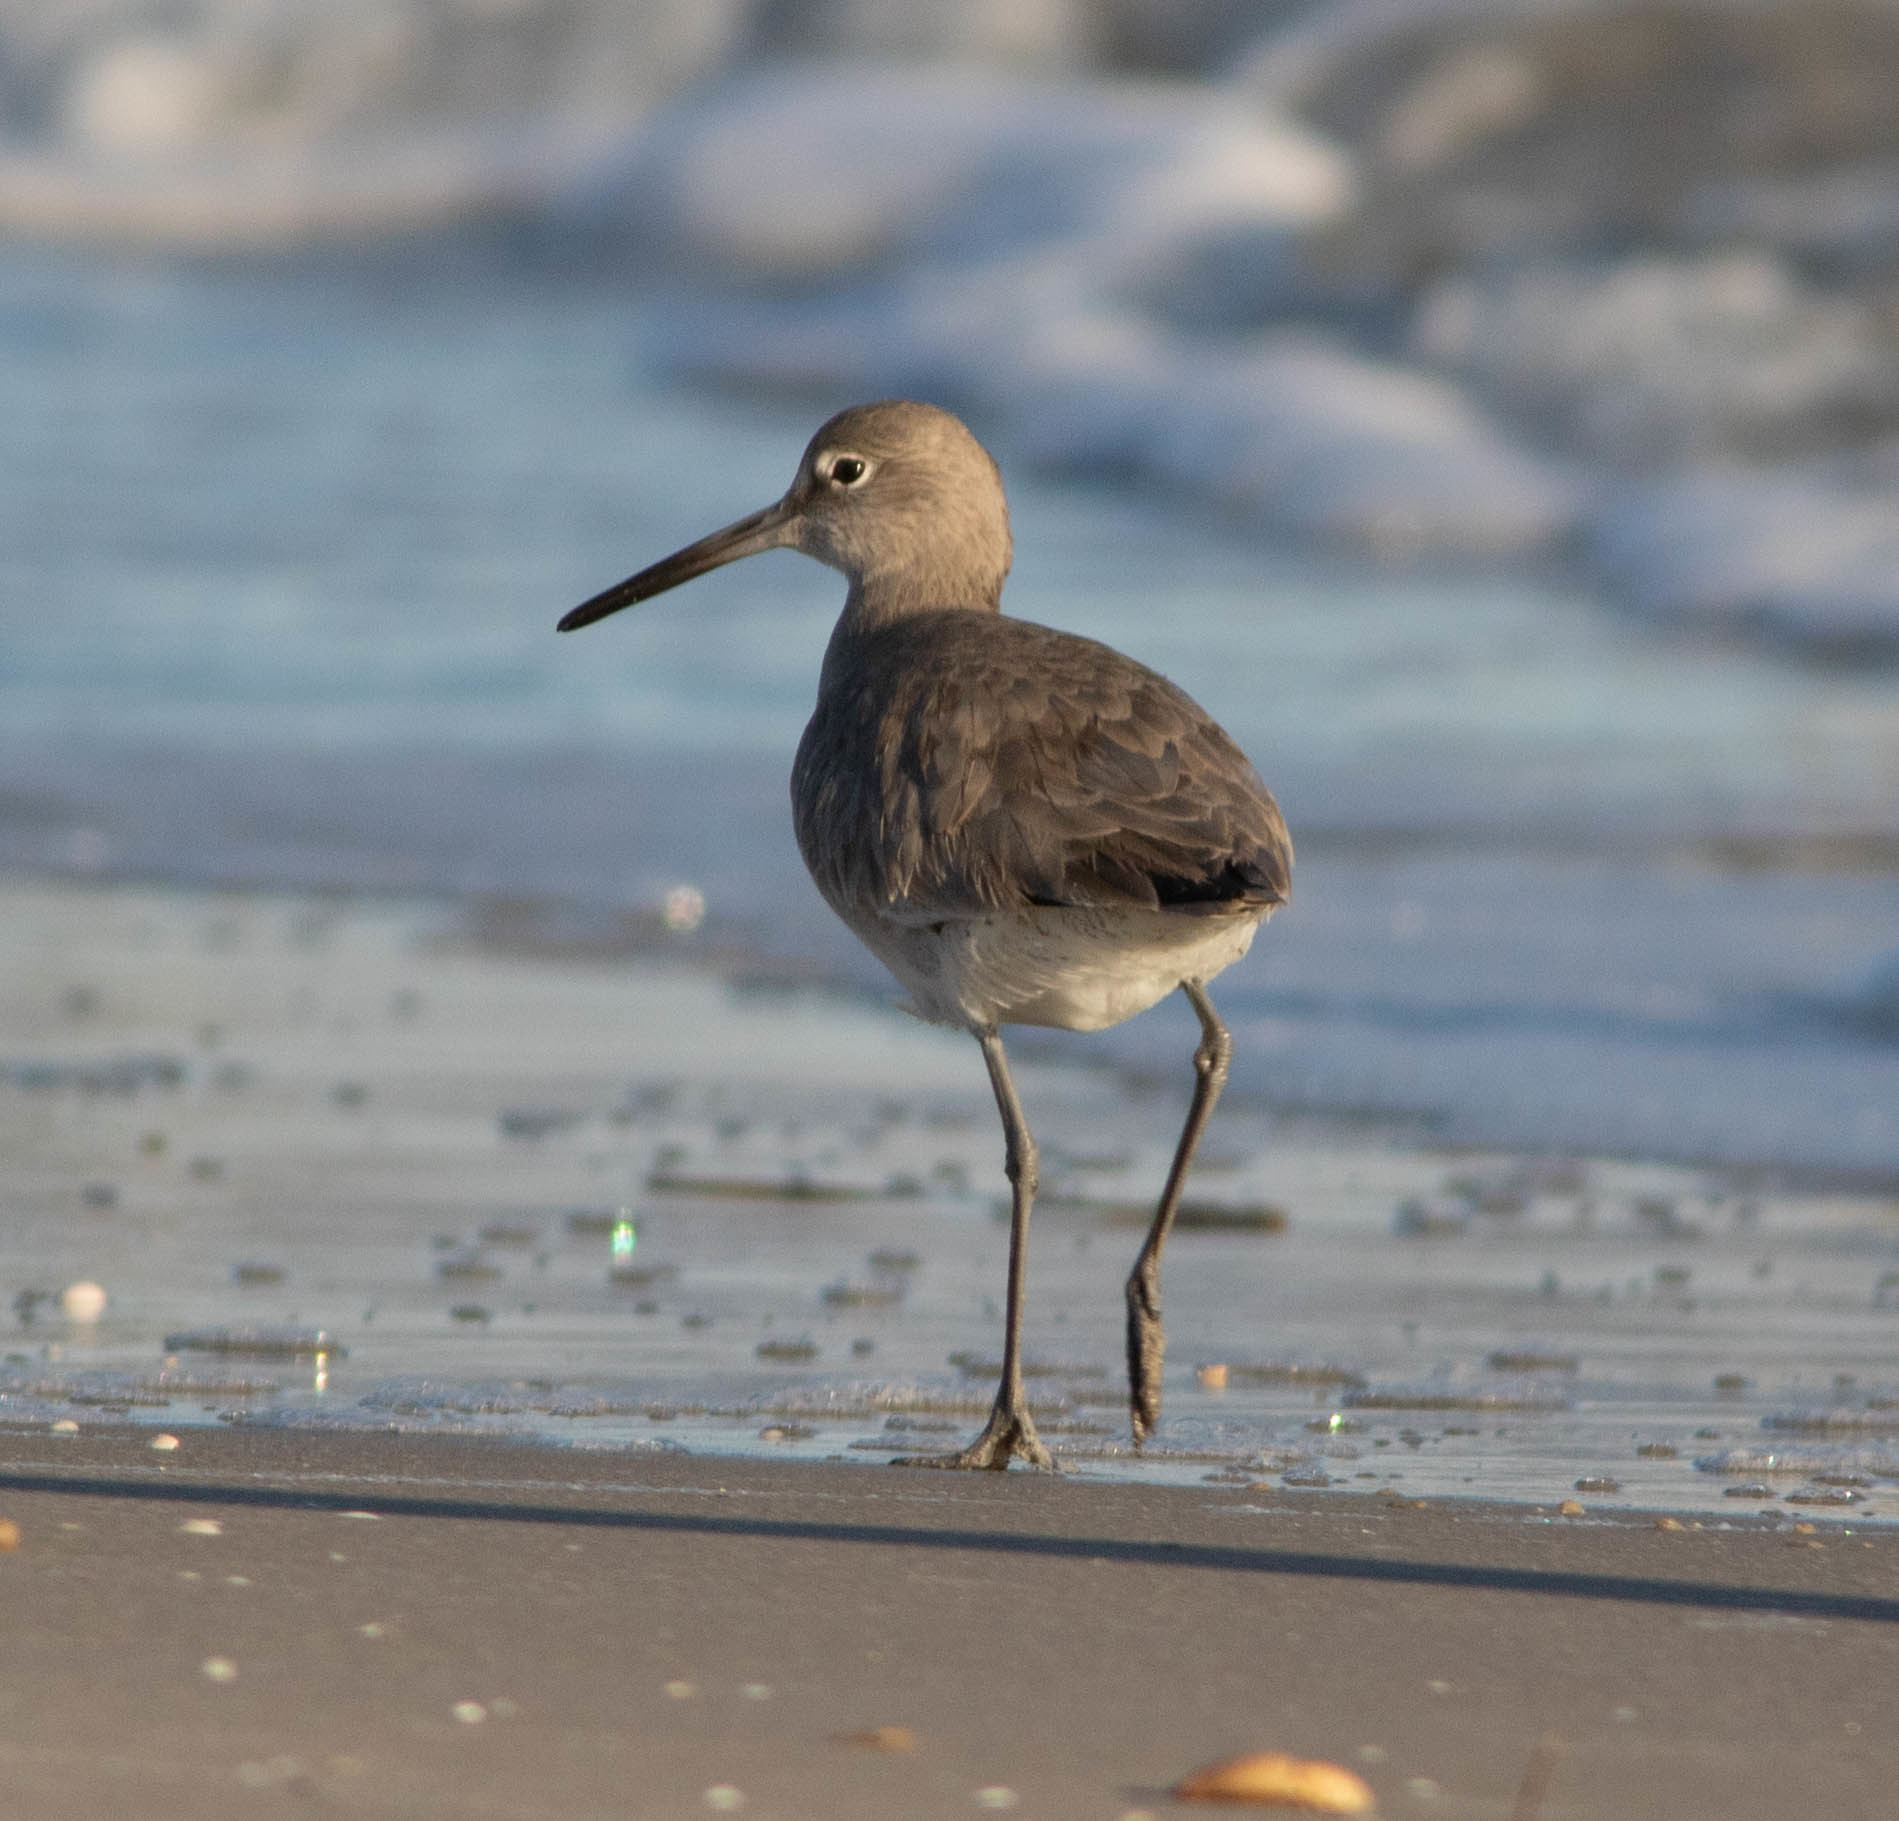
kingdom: Animalia
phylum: Chordata
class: Aves
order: Charadriiformes
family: Scolopacidae
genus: Tringa
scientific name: Tringa semipalmata
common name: Willet
